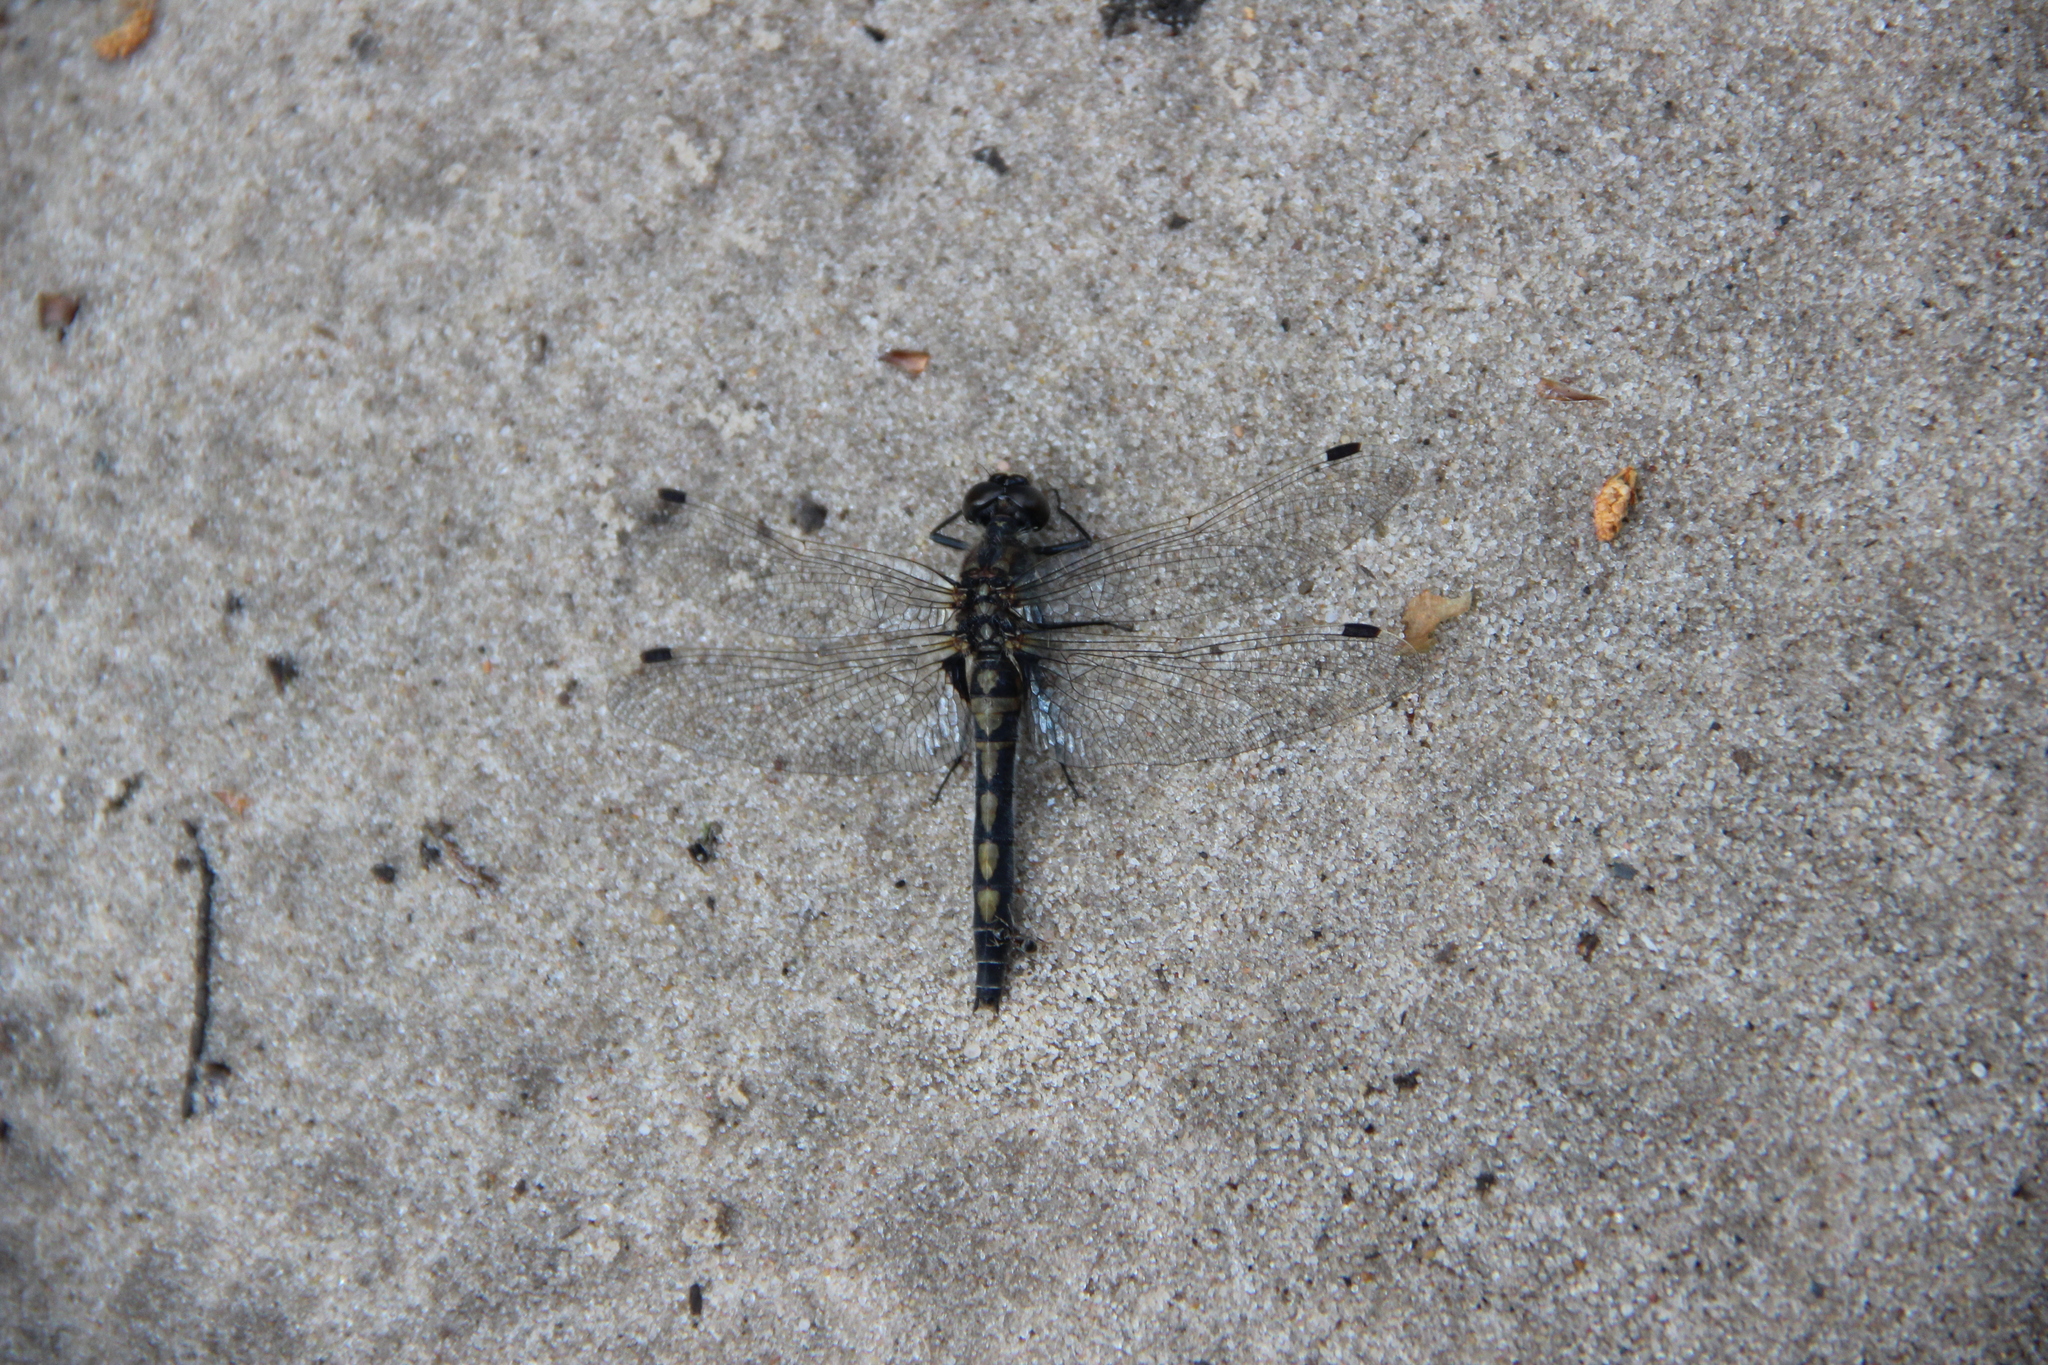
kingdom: Animalia
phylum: Arthropoda
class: Insecta
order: Odonata
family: Libellulidae
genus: Leucorrhinia
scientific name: Leucorrhinia rubicunda
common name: Ruby whiteface
